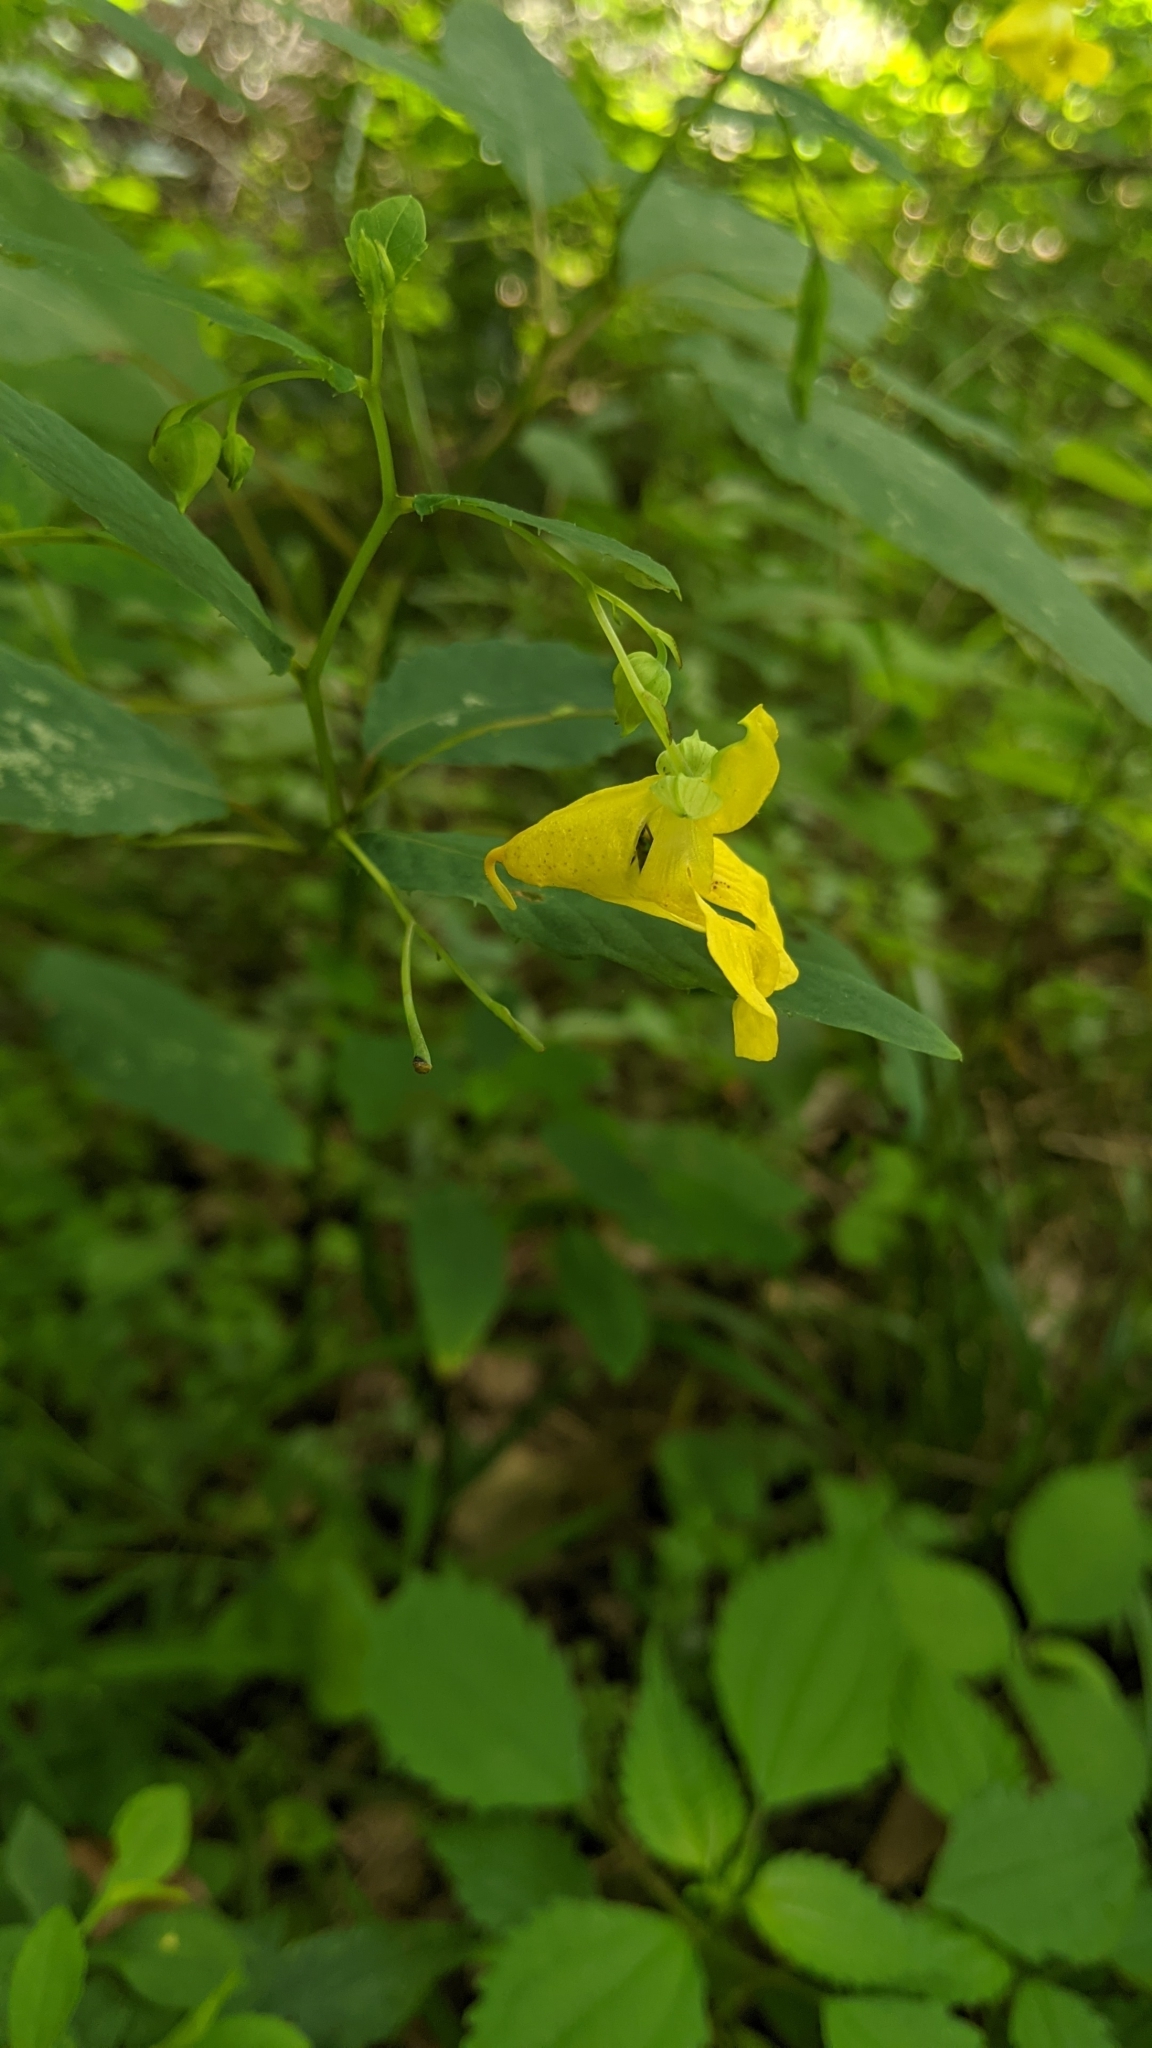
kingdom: Plantae
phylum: Tracheophyta
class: Magnoliopsida
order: Ericales
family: Balsaminaceae
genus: Impatiens
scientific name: Impatiens pallida
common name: Pale snapweed
